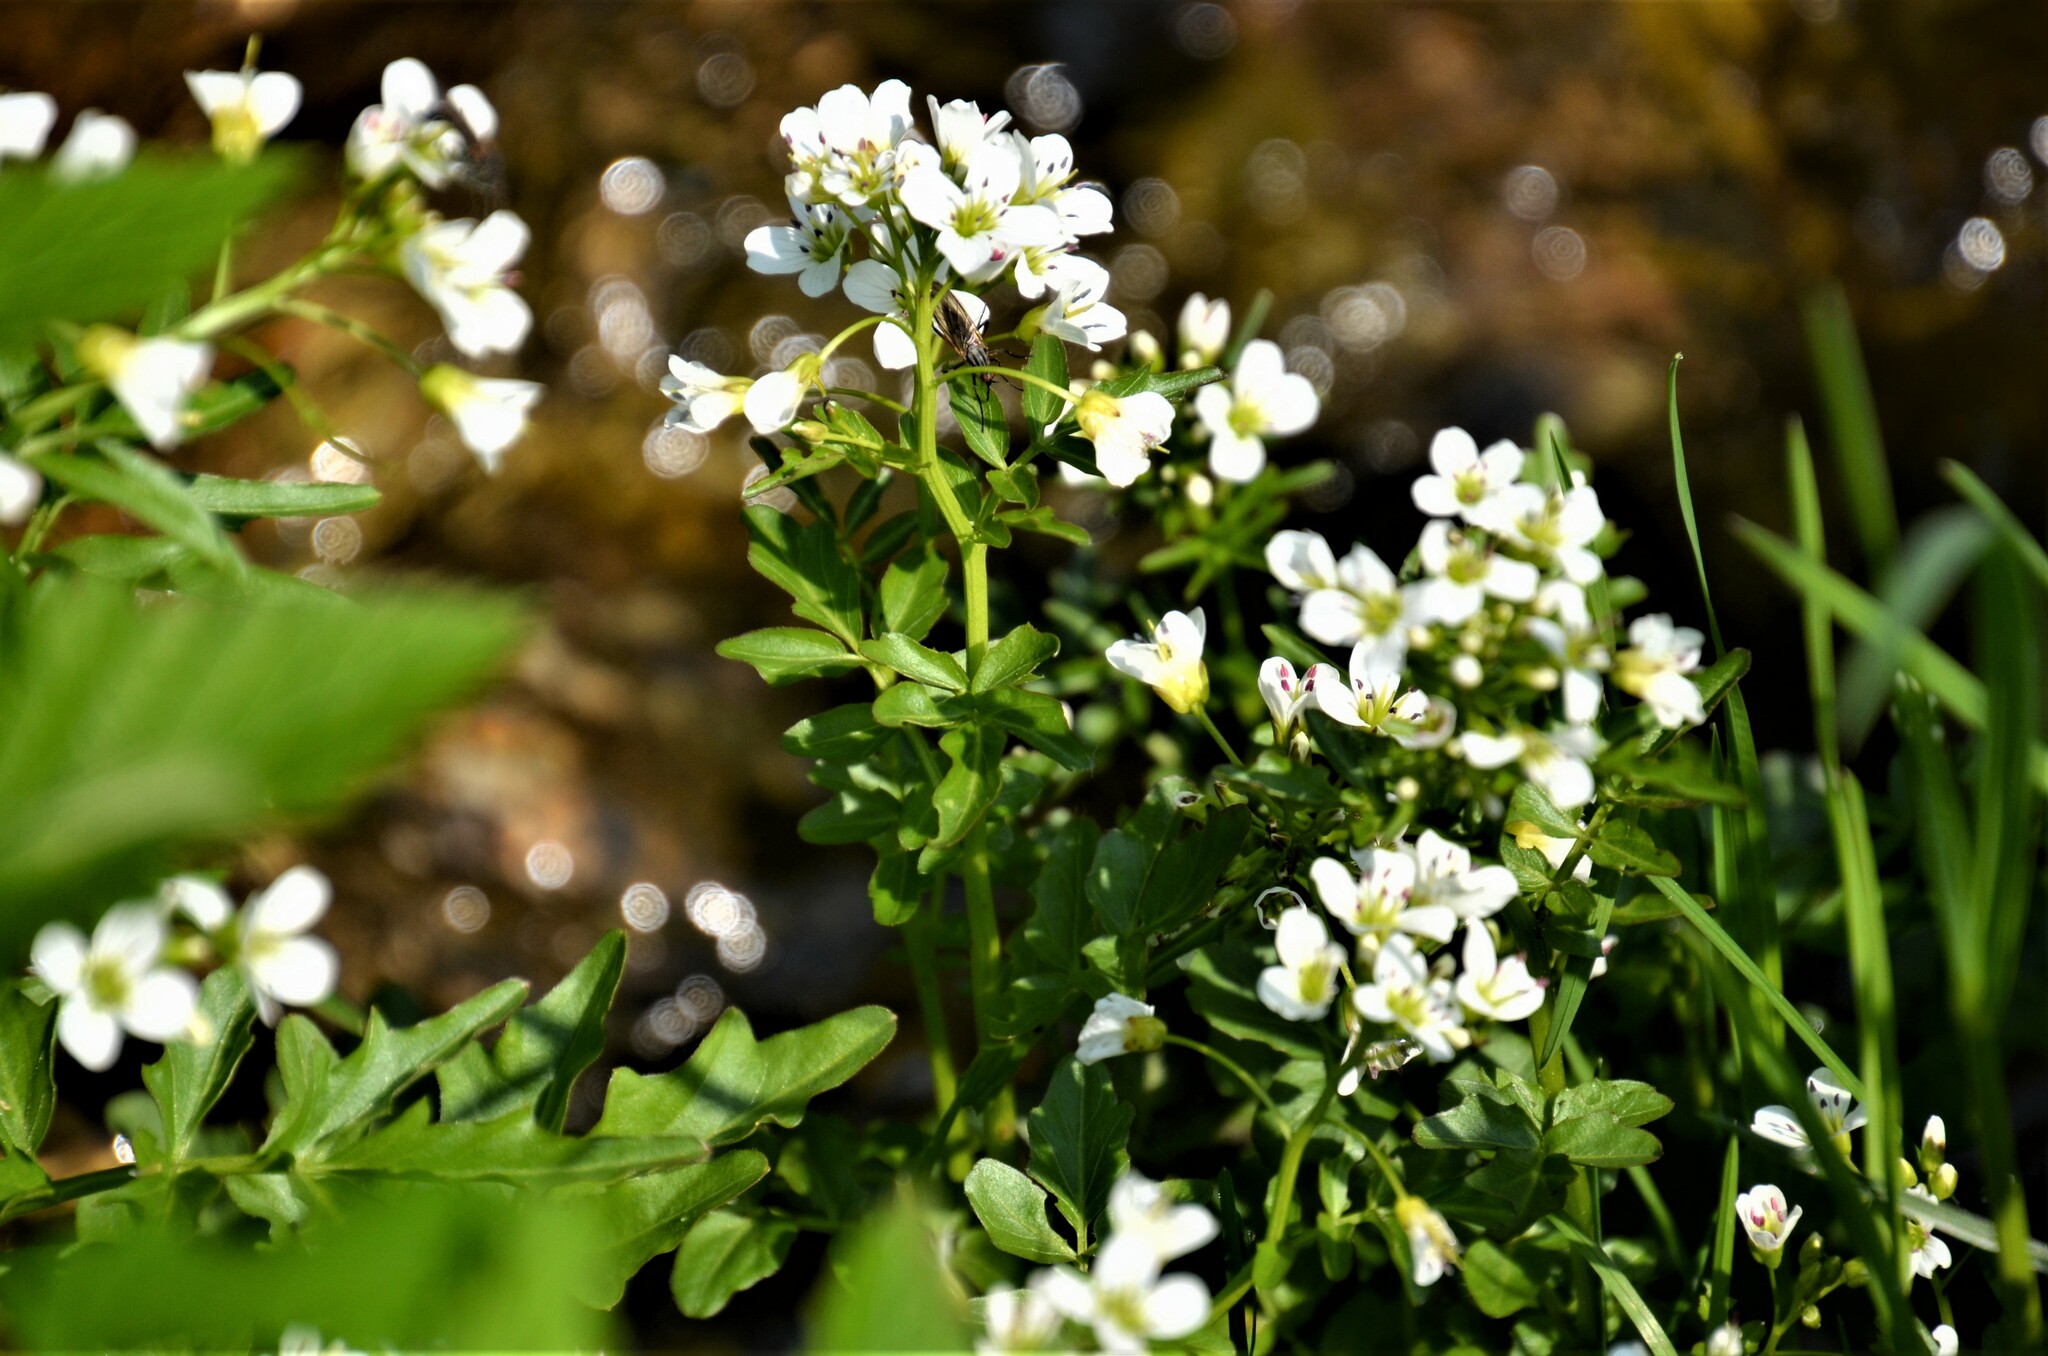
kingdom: Plantae
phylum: Tracheophyta
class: Magnoliopsida
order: Brassicales
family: Brassicaceae
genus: Cardamine
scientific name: Cardamine amara
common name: Large bitter-cress
